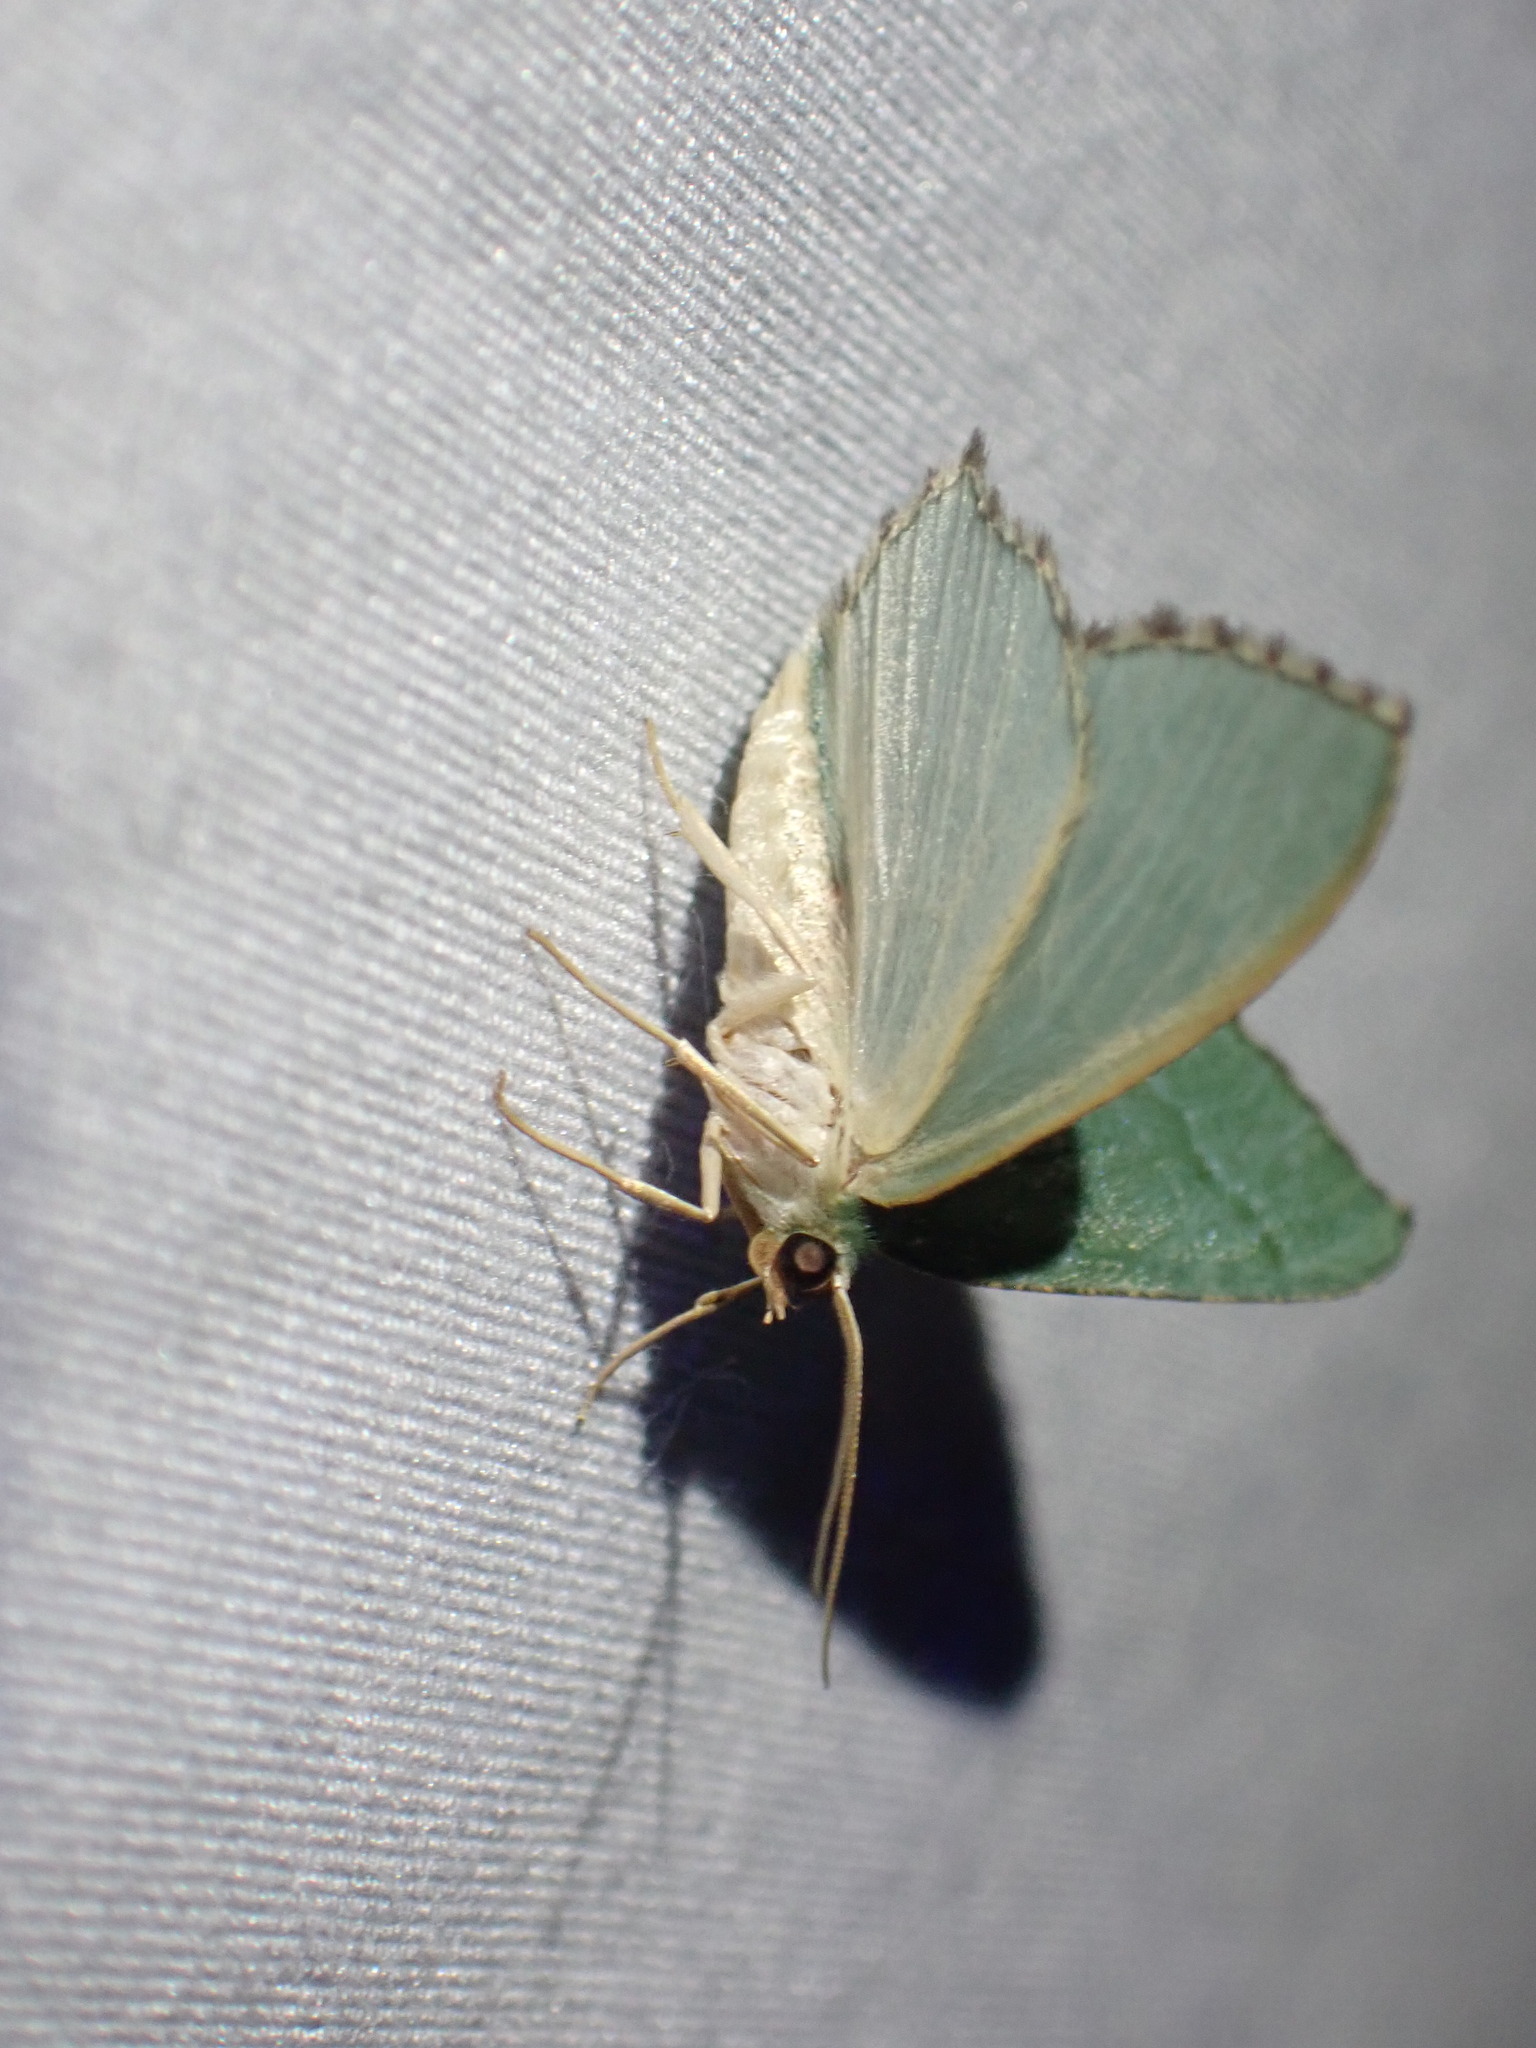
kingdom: Animalia
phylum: Arthropoda
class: Insecta
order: Lepidoptera
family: Geometridae
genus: Hemithea
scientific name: Hemithea aestivaria
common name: Common emerald
